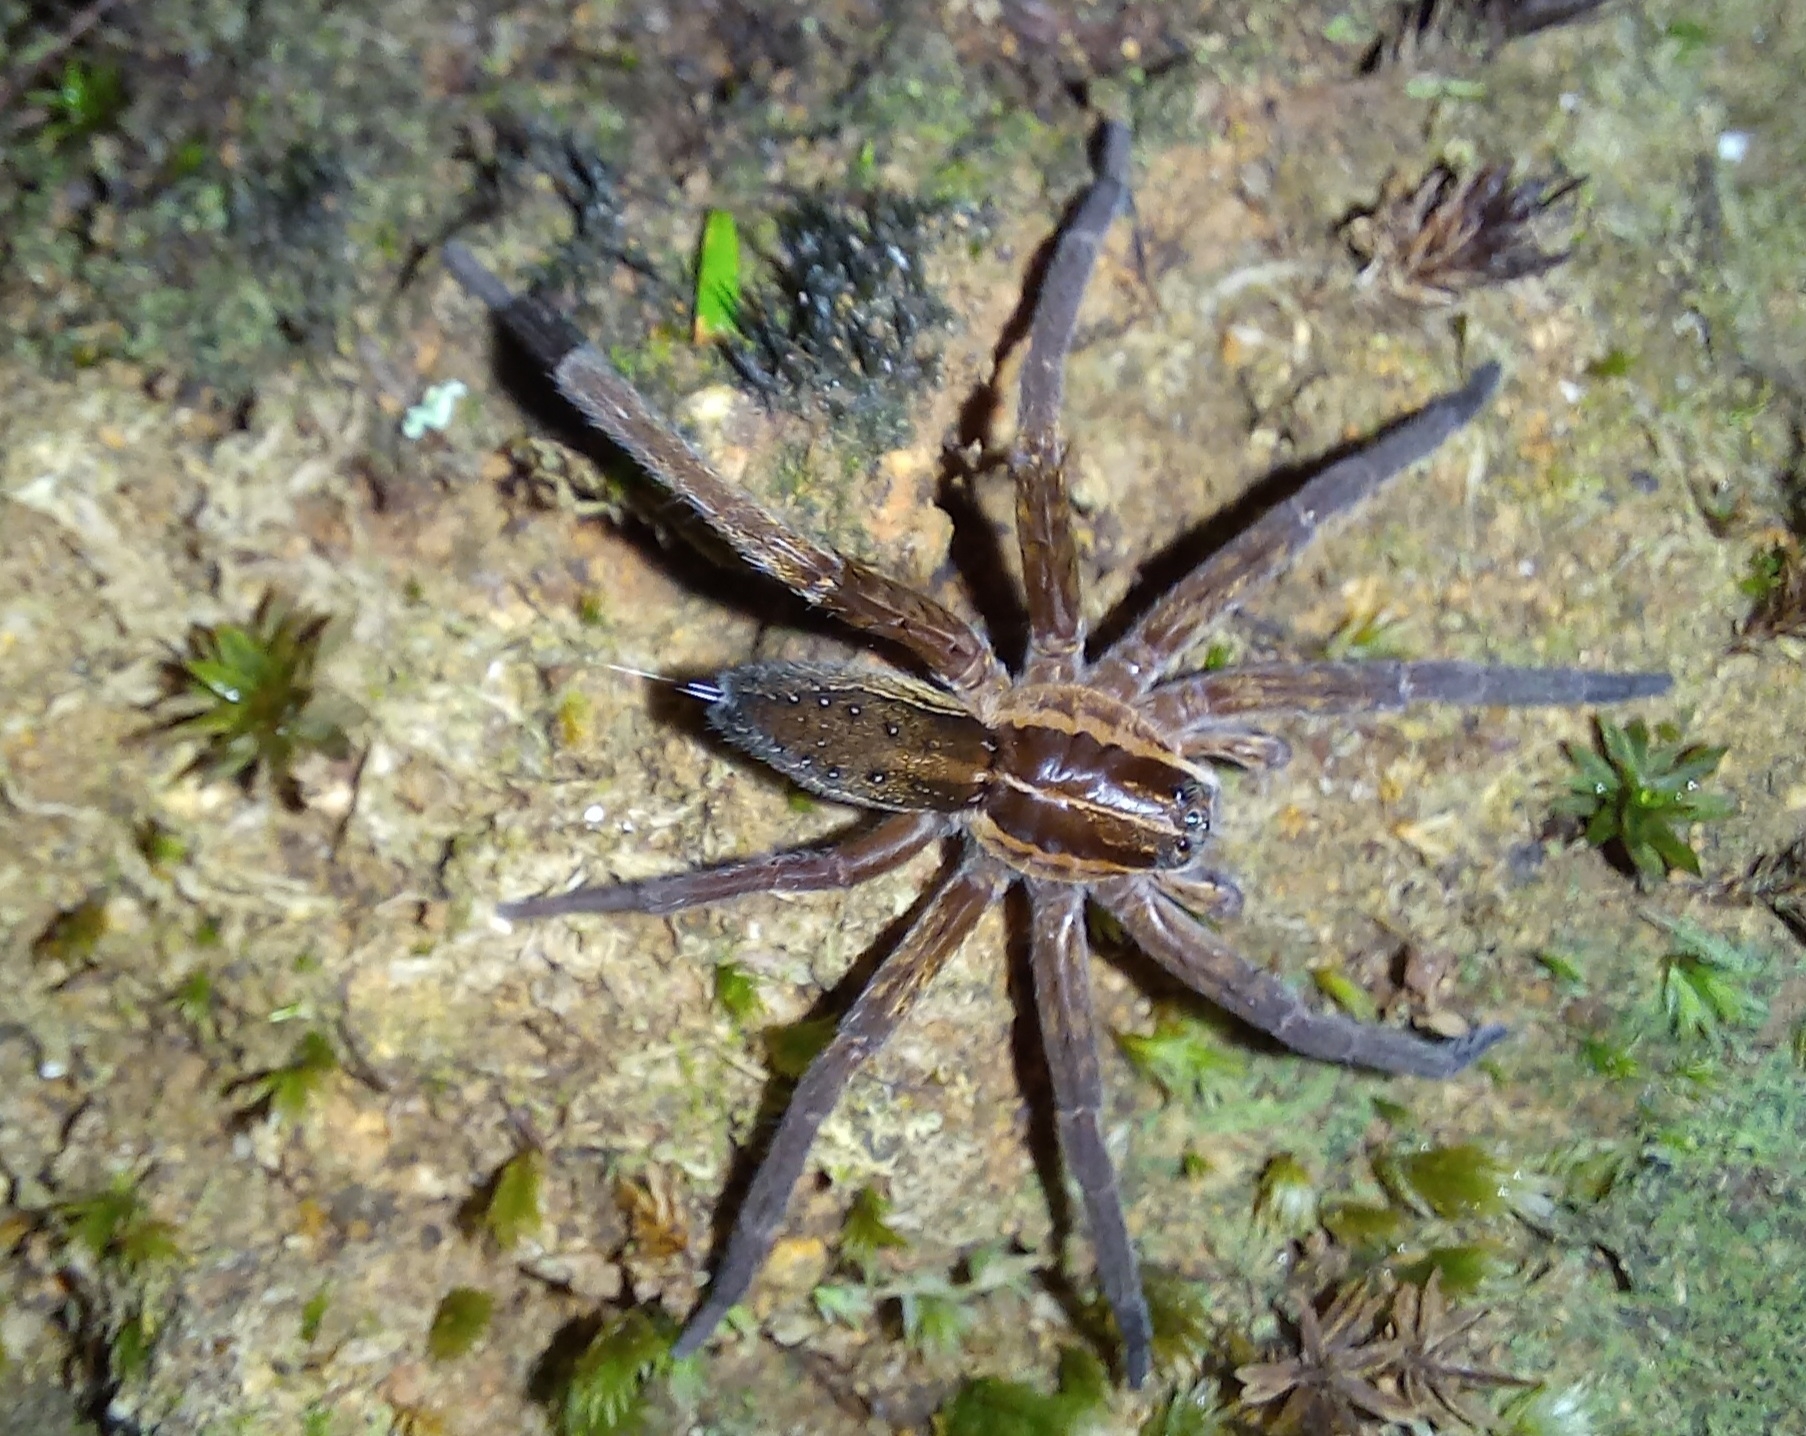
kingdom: Animalia
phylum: Arthropoda
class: Arachnida
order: Araneae
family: Pisauridae
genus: Dolomedes
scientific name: Dolomedes minor
